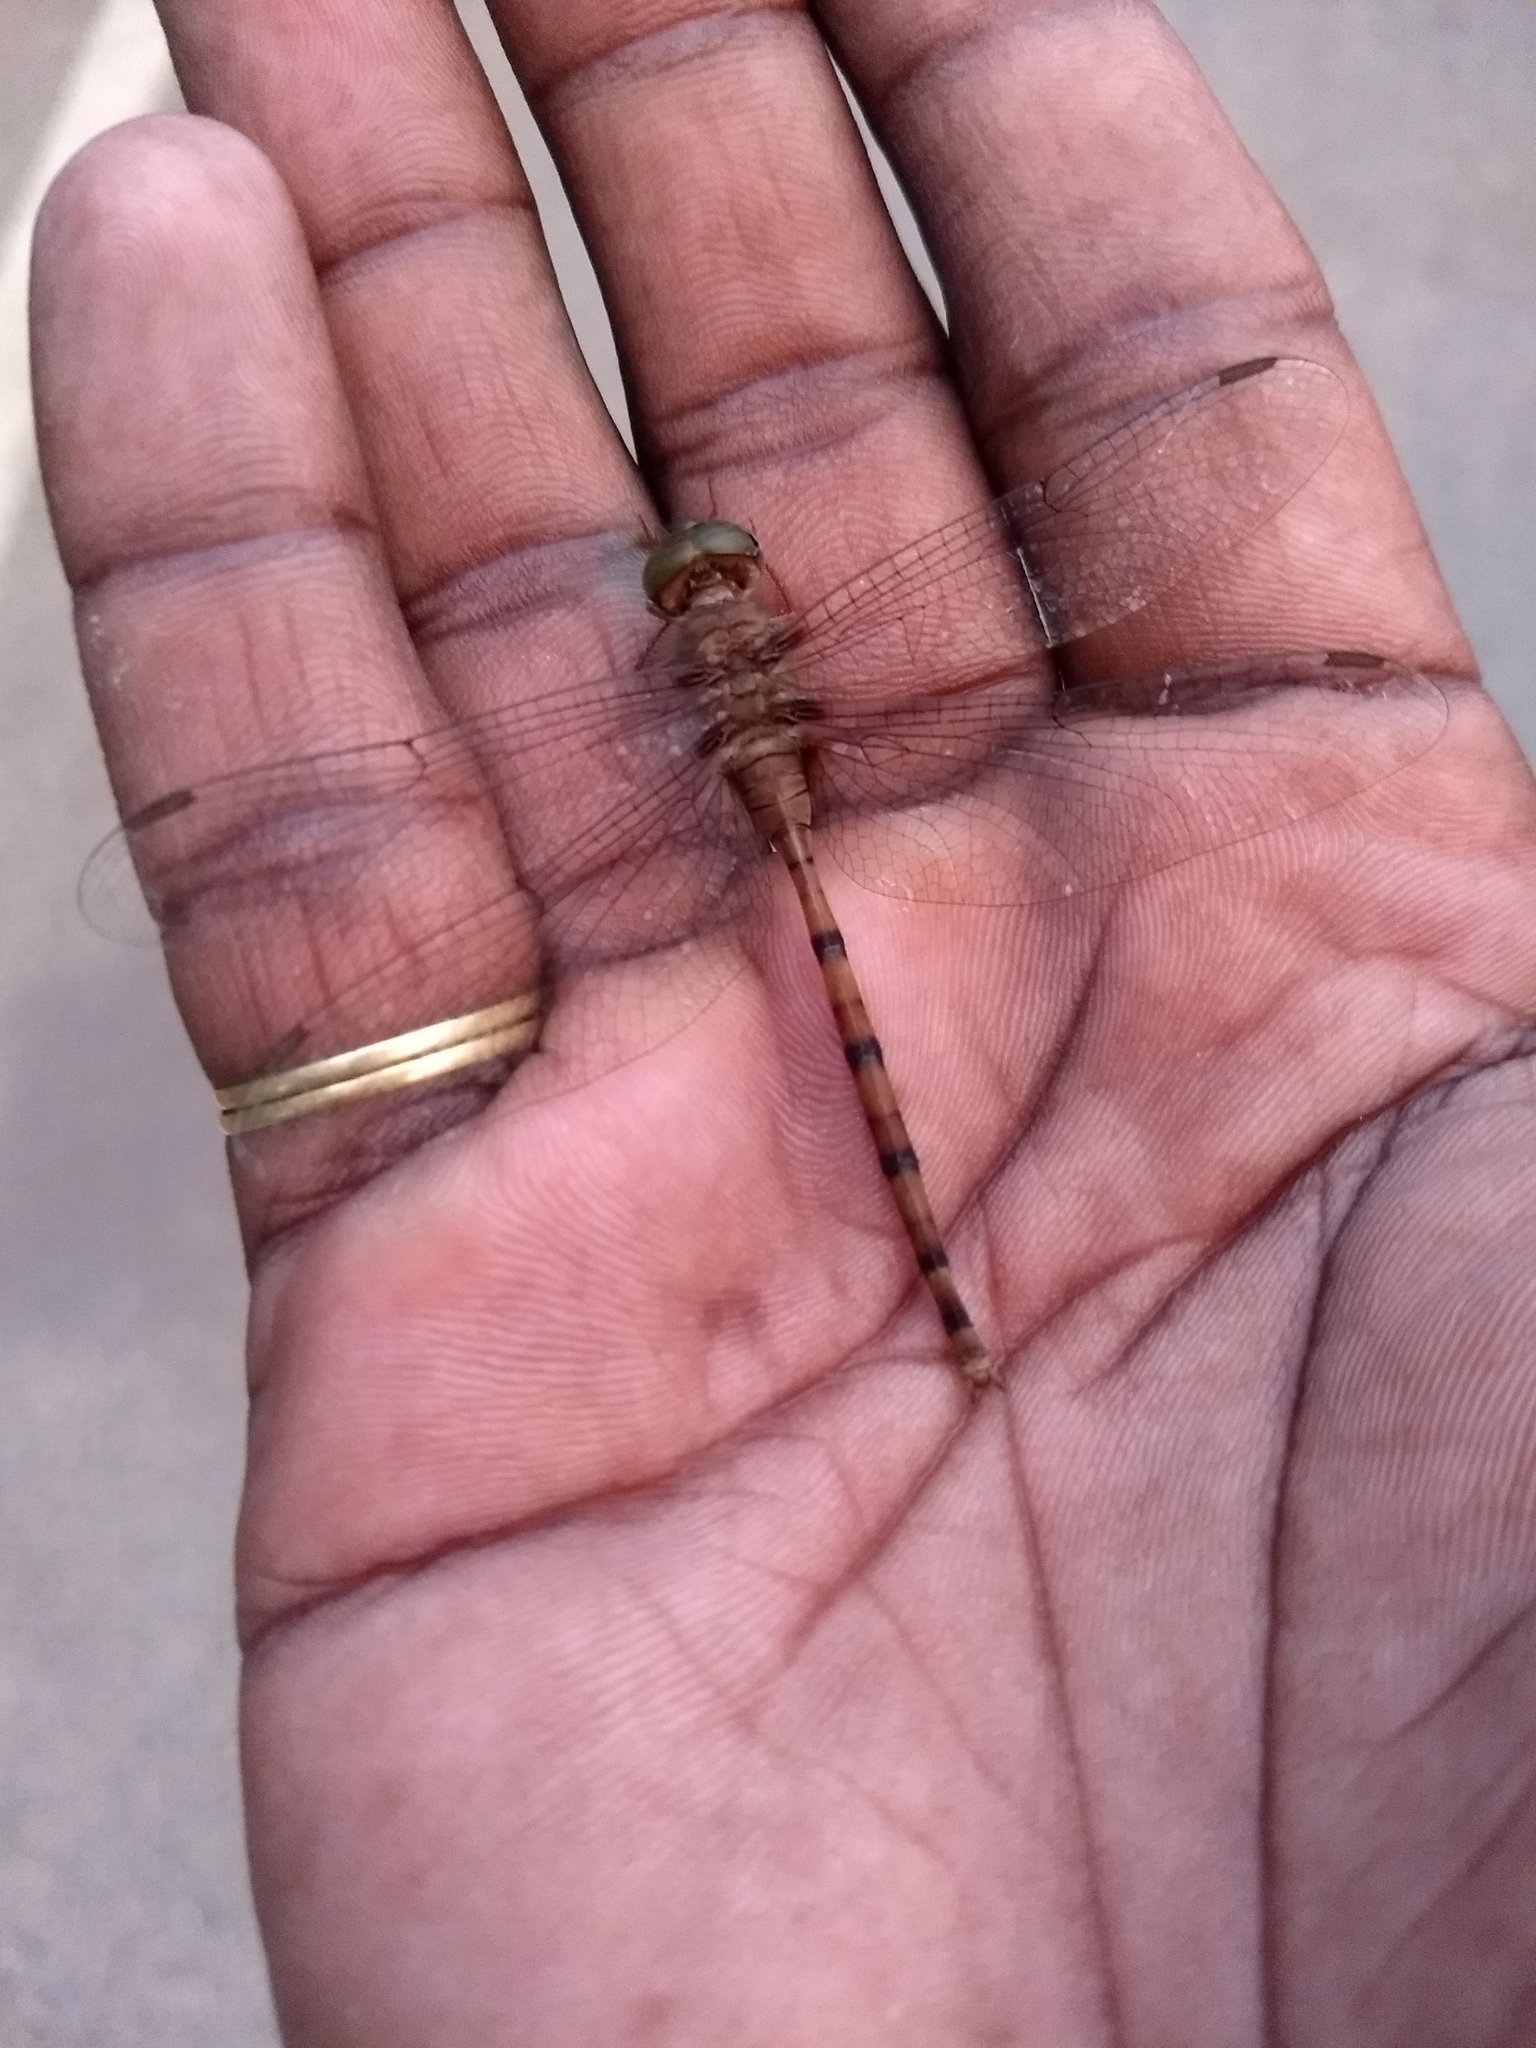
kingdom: Animalia
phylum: Arthropoda
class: Insecta
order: Odonata
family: Libellulidae
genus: Zyxomma
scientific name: Zyxomma petiolatum
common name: Dingy dusk-darter
